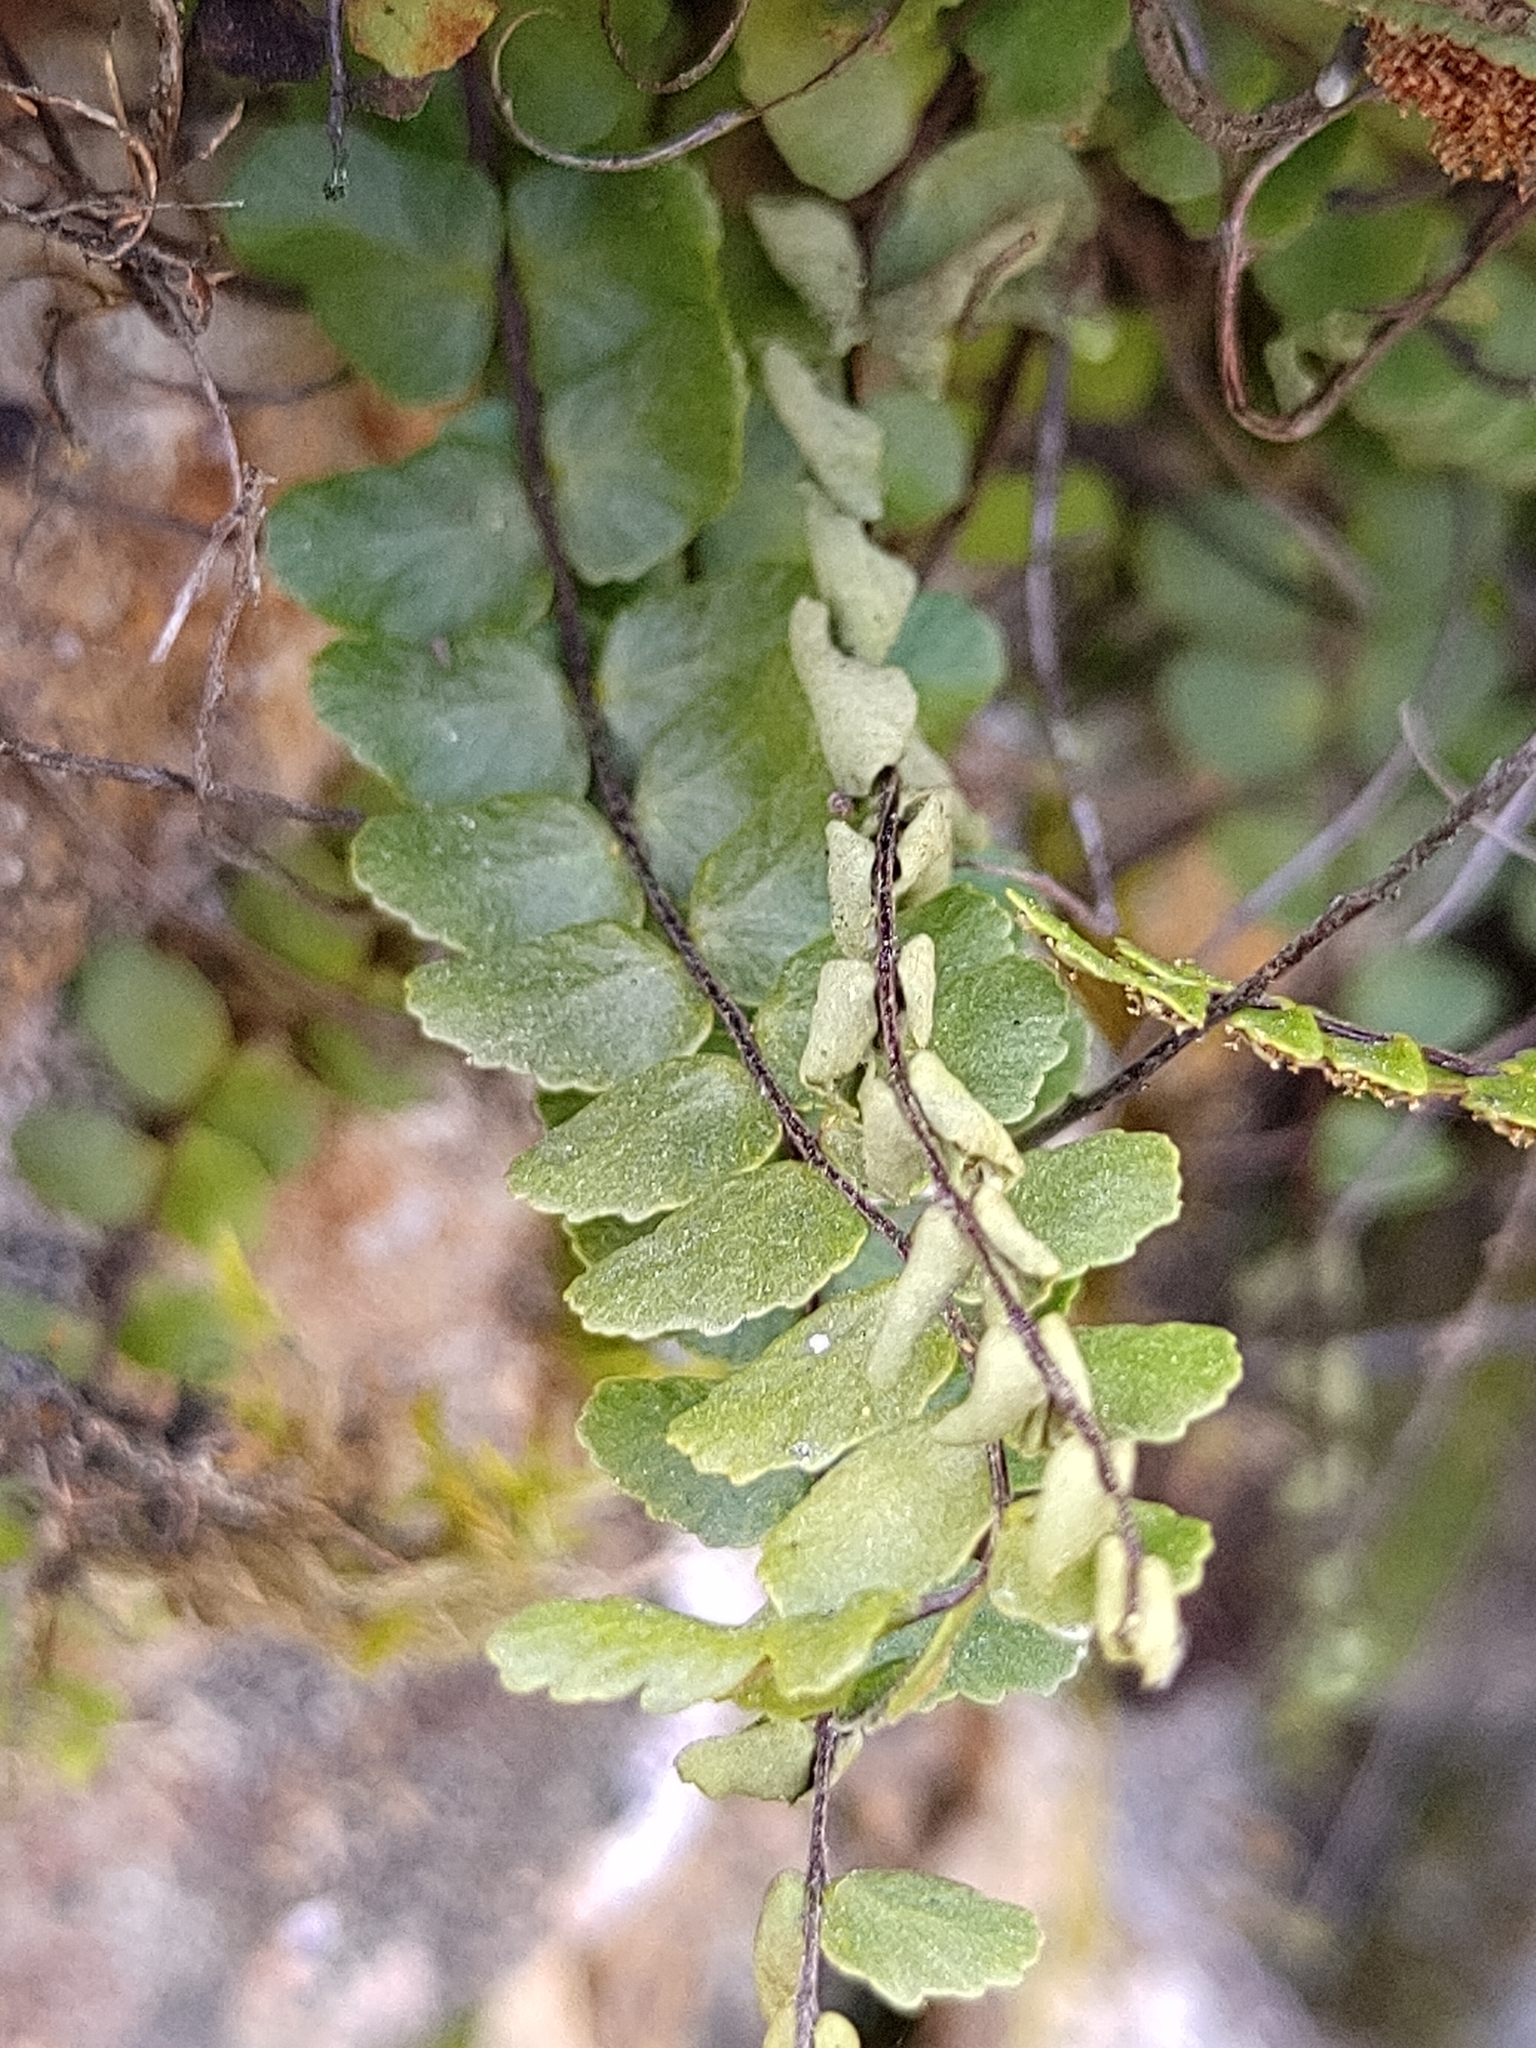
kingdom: Plantae
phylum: Tracheophyta
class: Polypodiopsida
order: Polypodiales
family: Aspleniaceae
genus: Asplenium
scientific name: Asplenium trichomanes
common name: Maidenhair spleenwort
